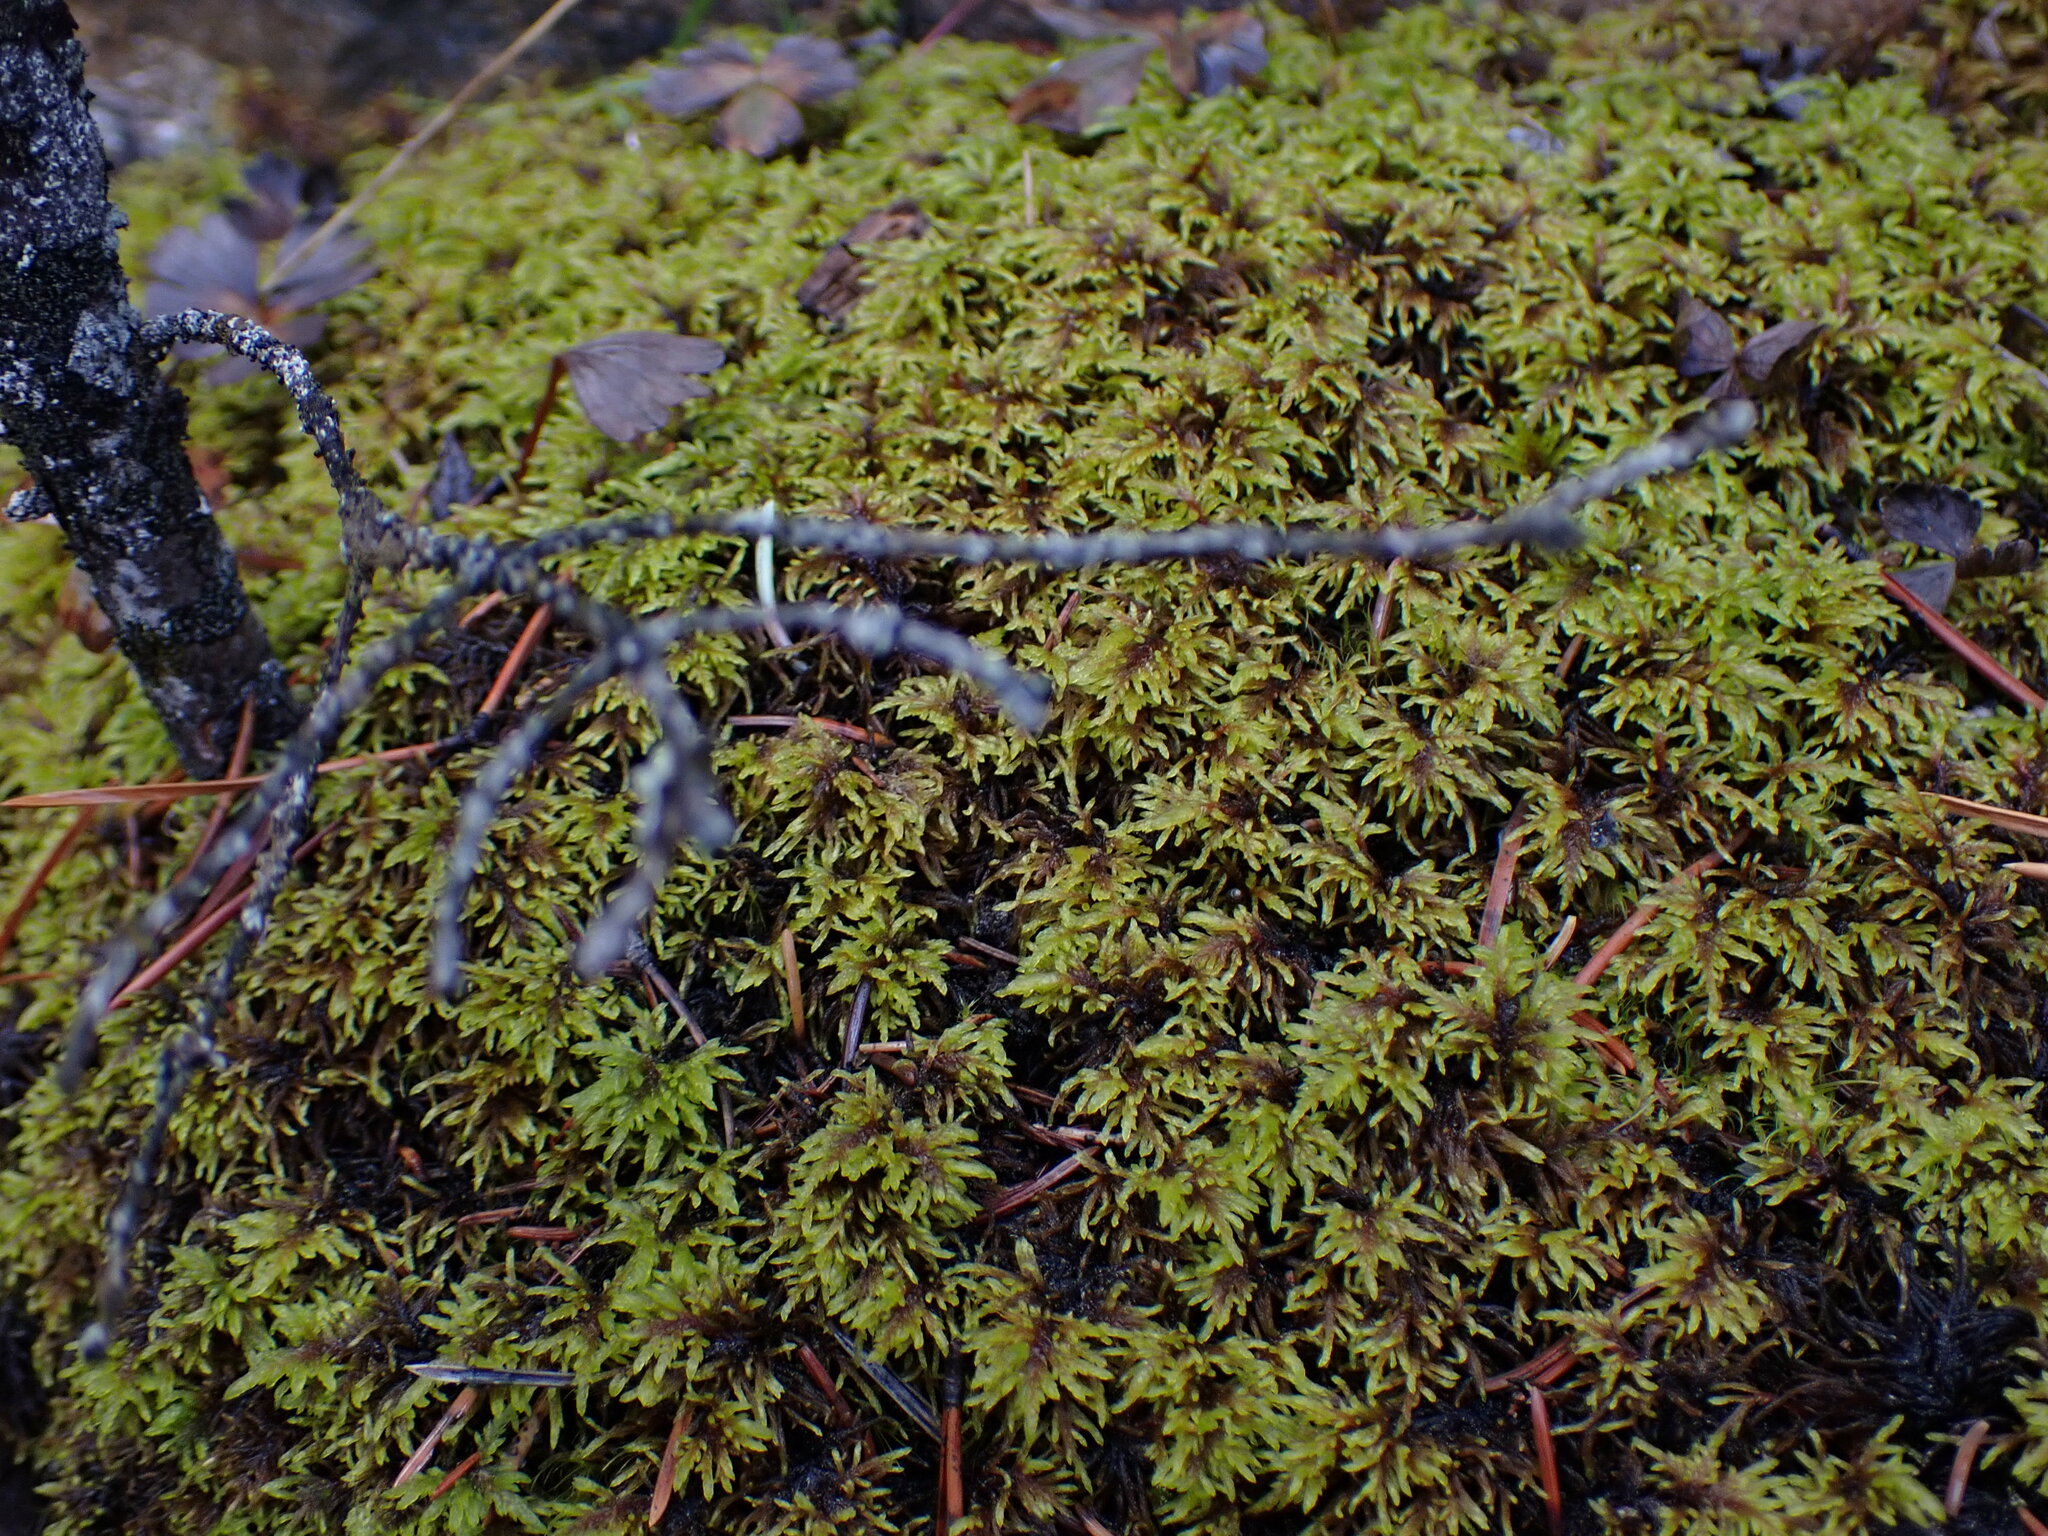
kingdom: Plantae
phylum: Bryophyta
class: Bryopsida
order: Hypnales
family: Hylocomiaceae
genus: Hylocomium
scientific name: Hylocomium splendens
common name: Stairstep moss
